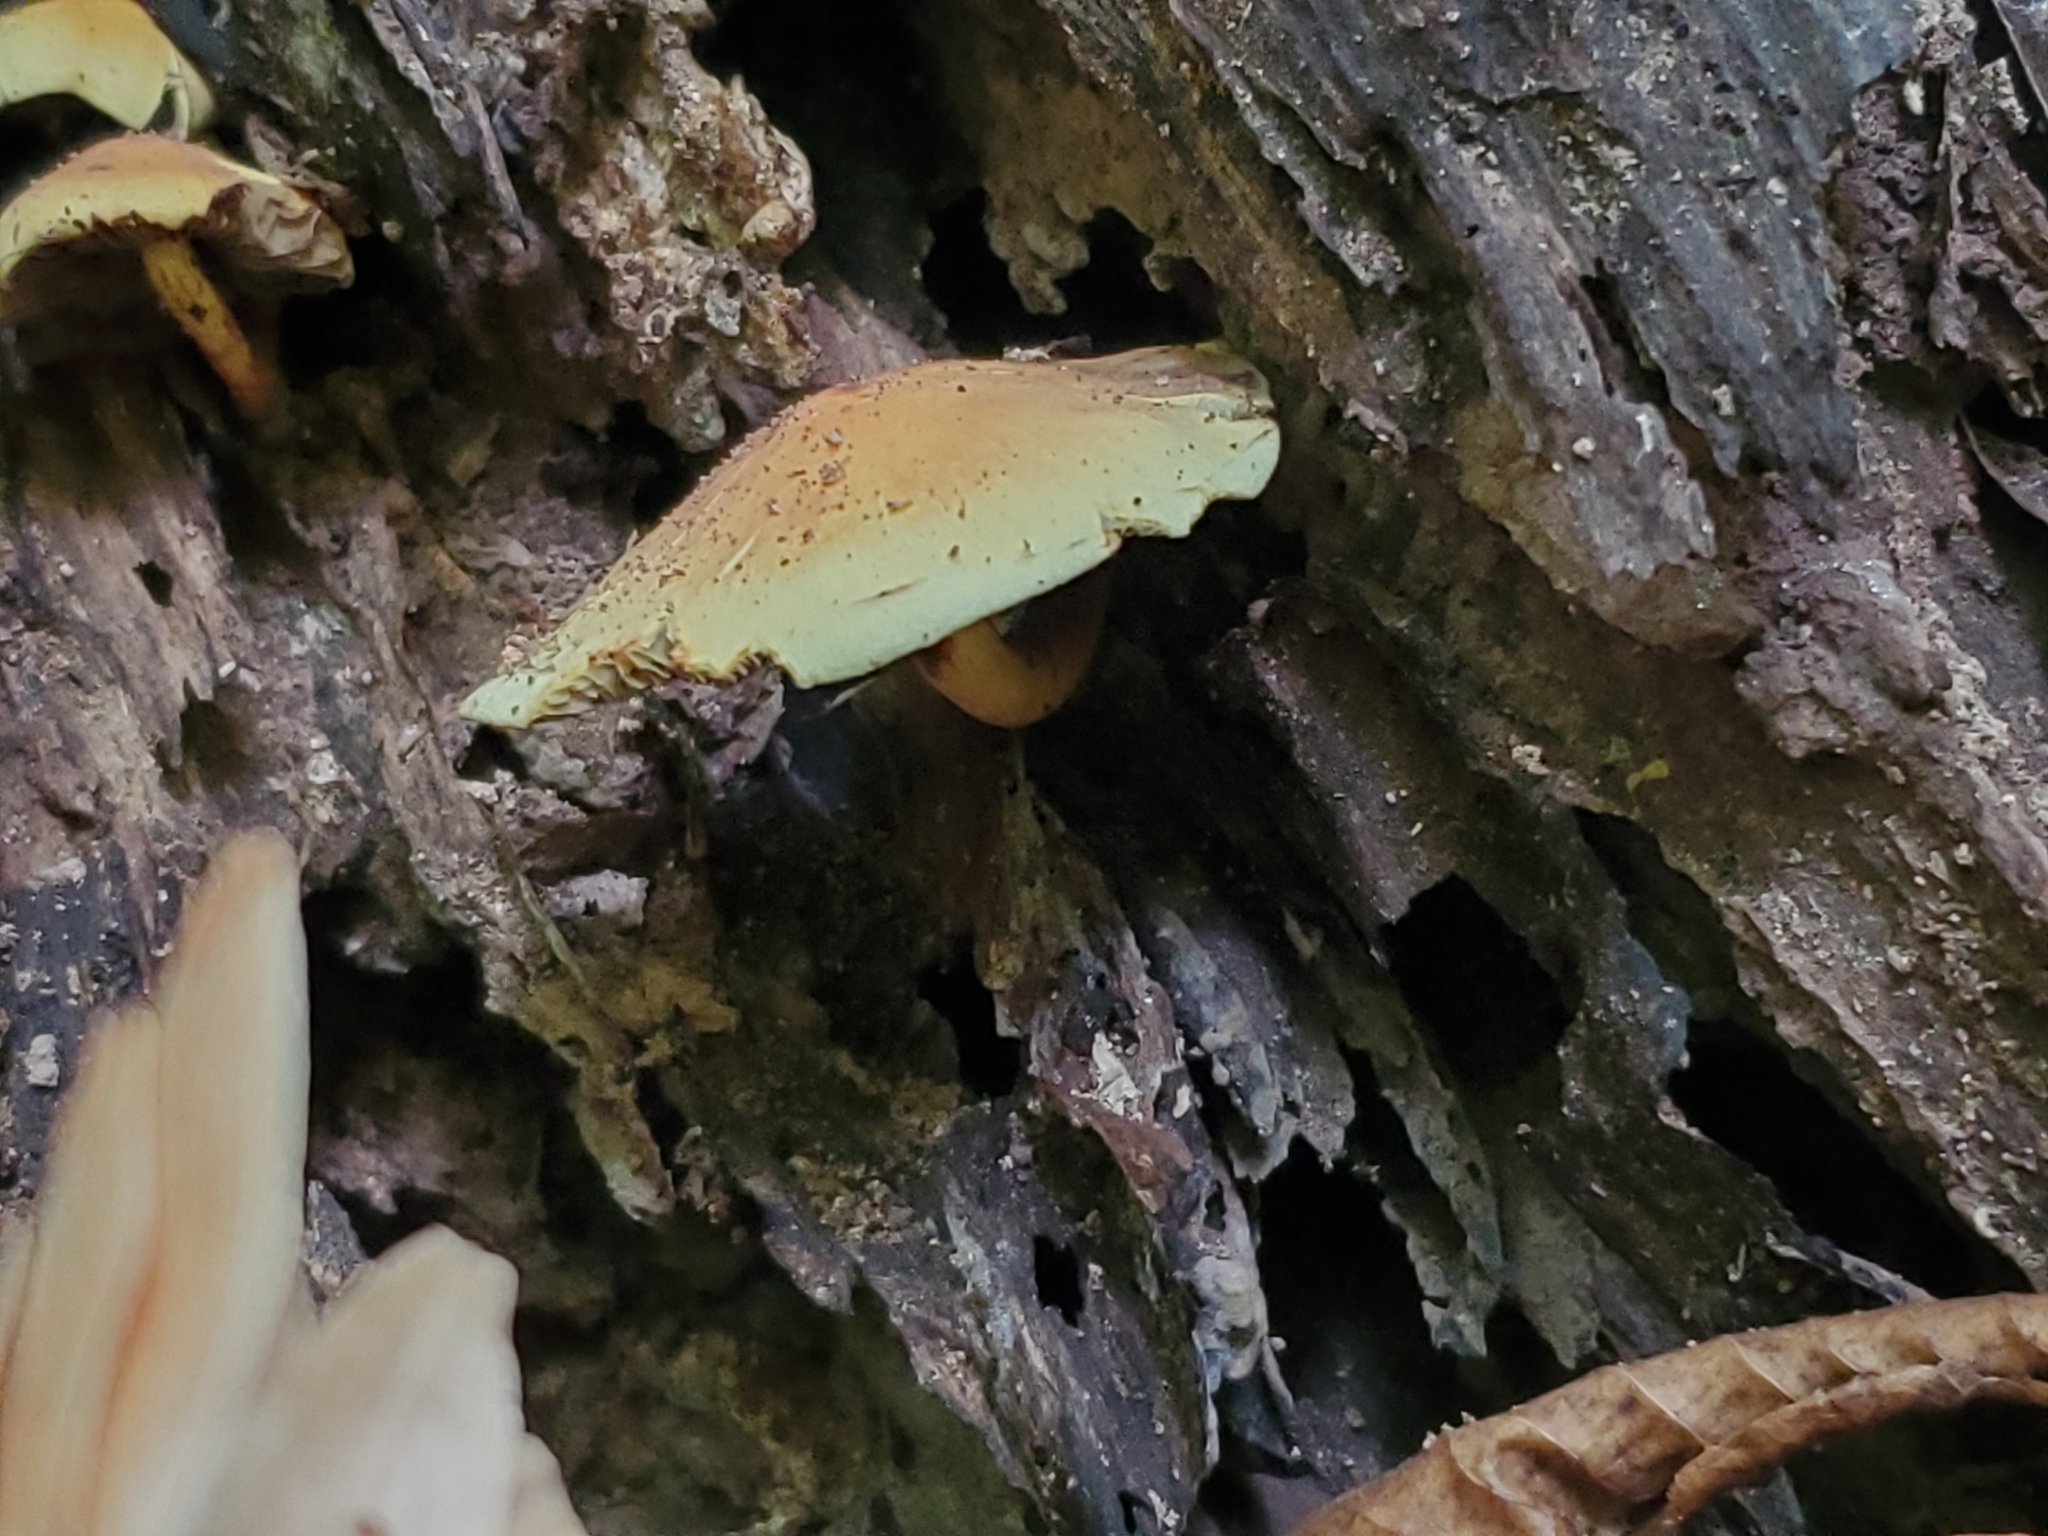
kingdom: Fungi
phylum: Basidiomycota
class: Agaricomycetes
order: Agaricales
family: Strophariaceae
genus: Hypholoma
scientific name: Hypholoma fasciculare
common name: Sulphur tuft
